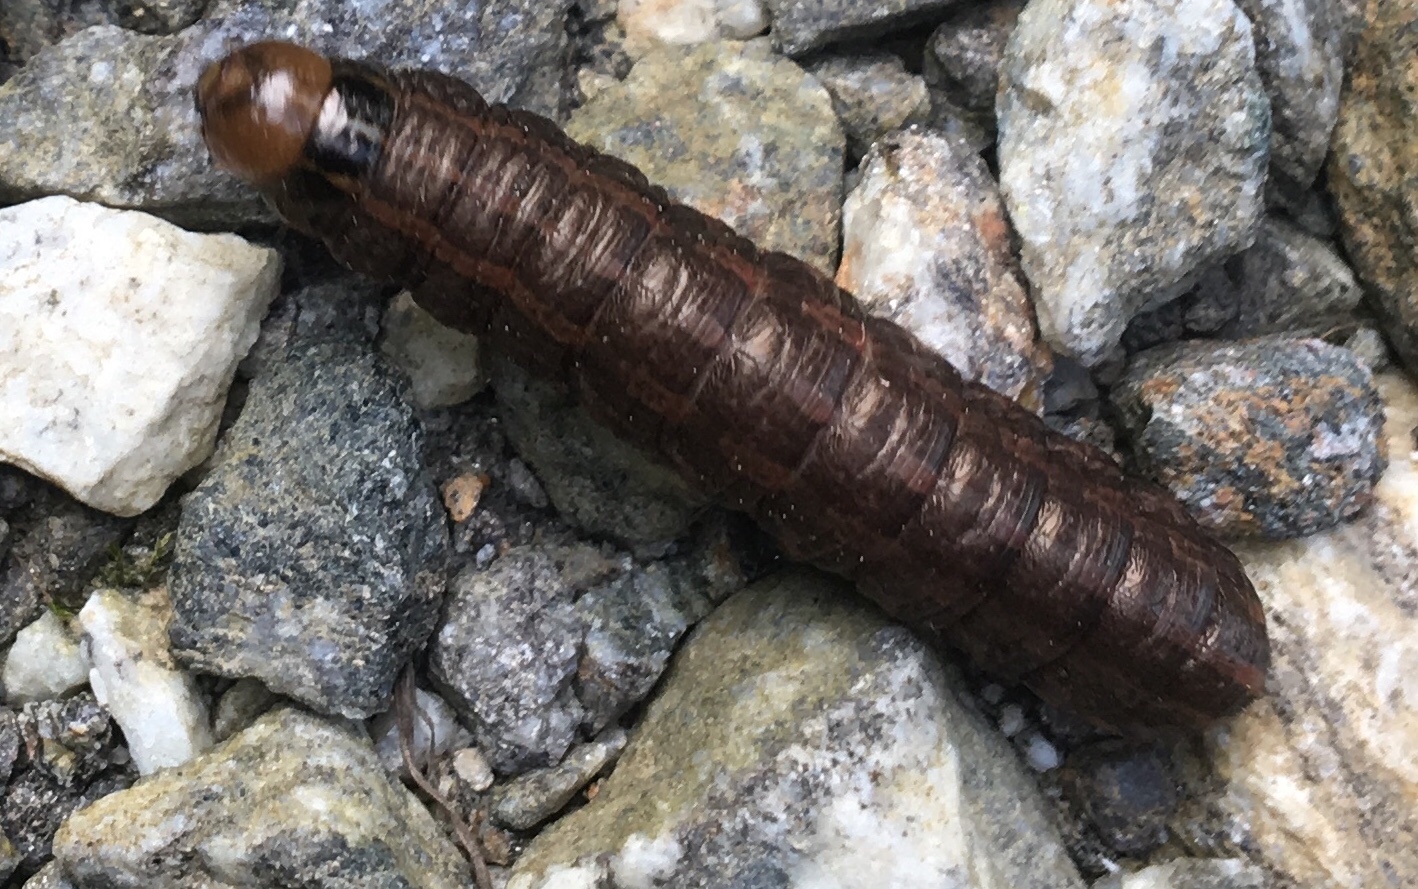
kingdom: Animalia
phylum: Arthropoda
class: Insecta
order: Lepidoptera
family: Noctuidae
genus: Nephelodes
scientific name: Nephelodes minians
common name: Bronzed cutworm
